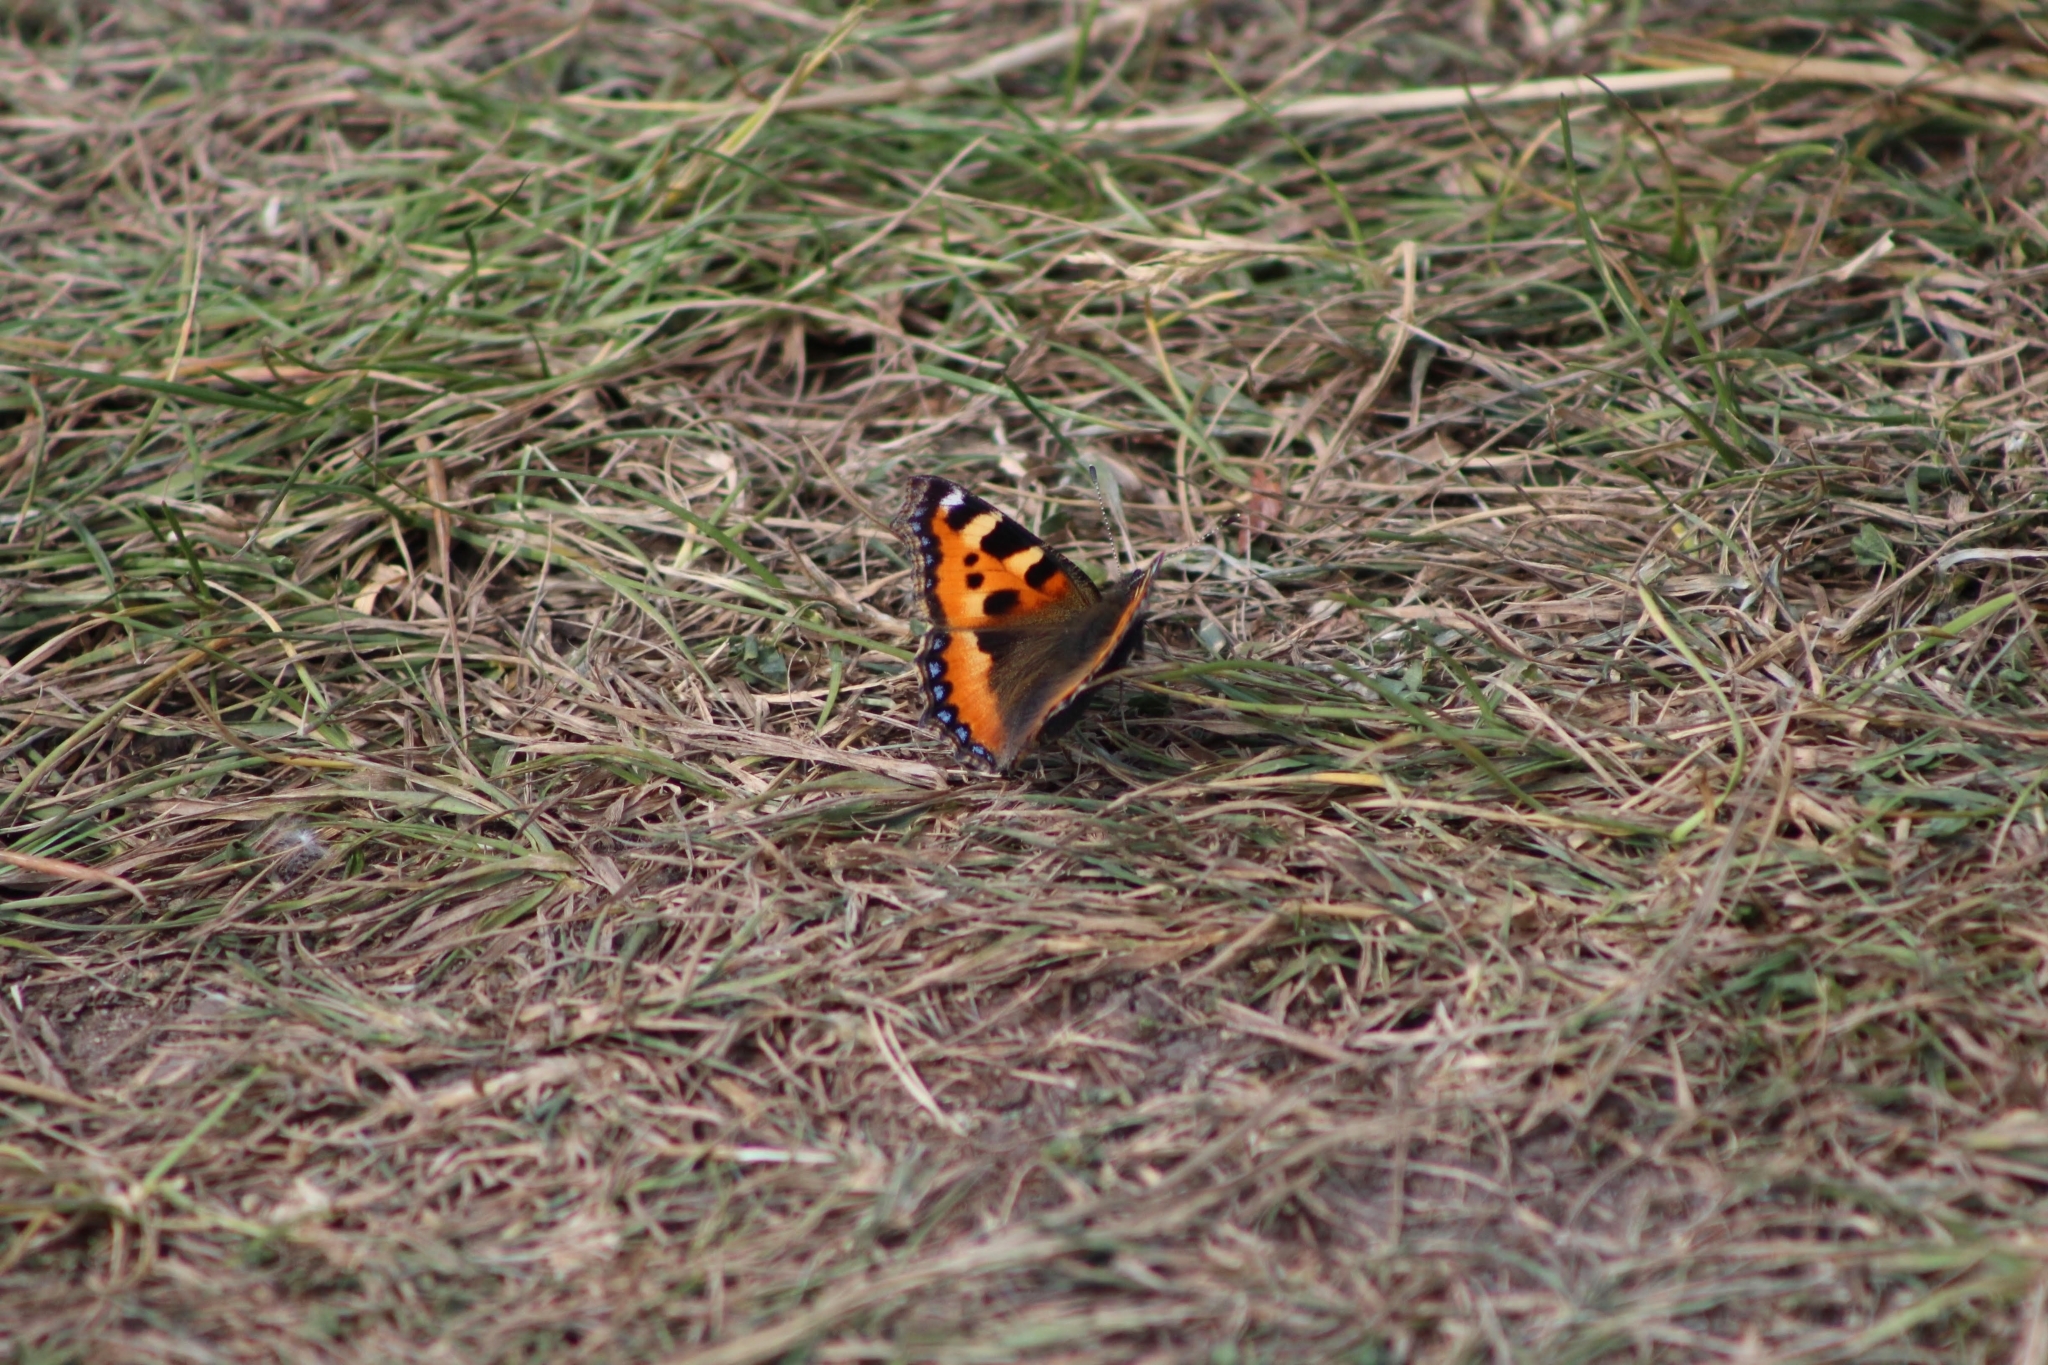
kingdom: Animalia
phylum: Arthropoda
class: Insecta
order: Lepidoptera
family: Nymphalidae
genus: Aglais
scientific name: Aglais urticae
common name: Small tortoiseshell
